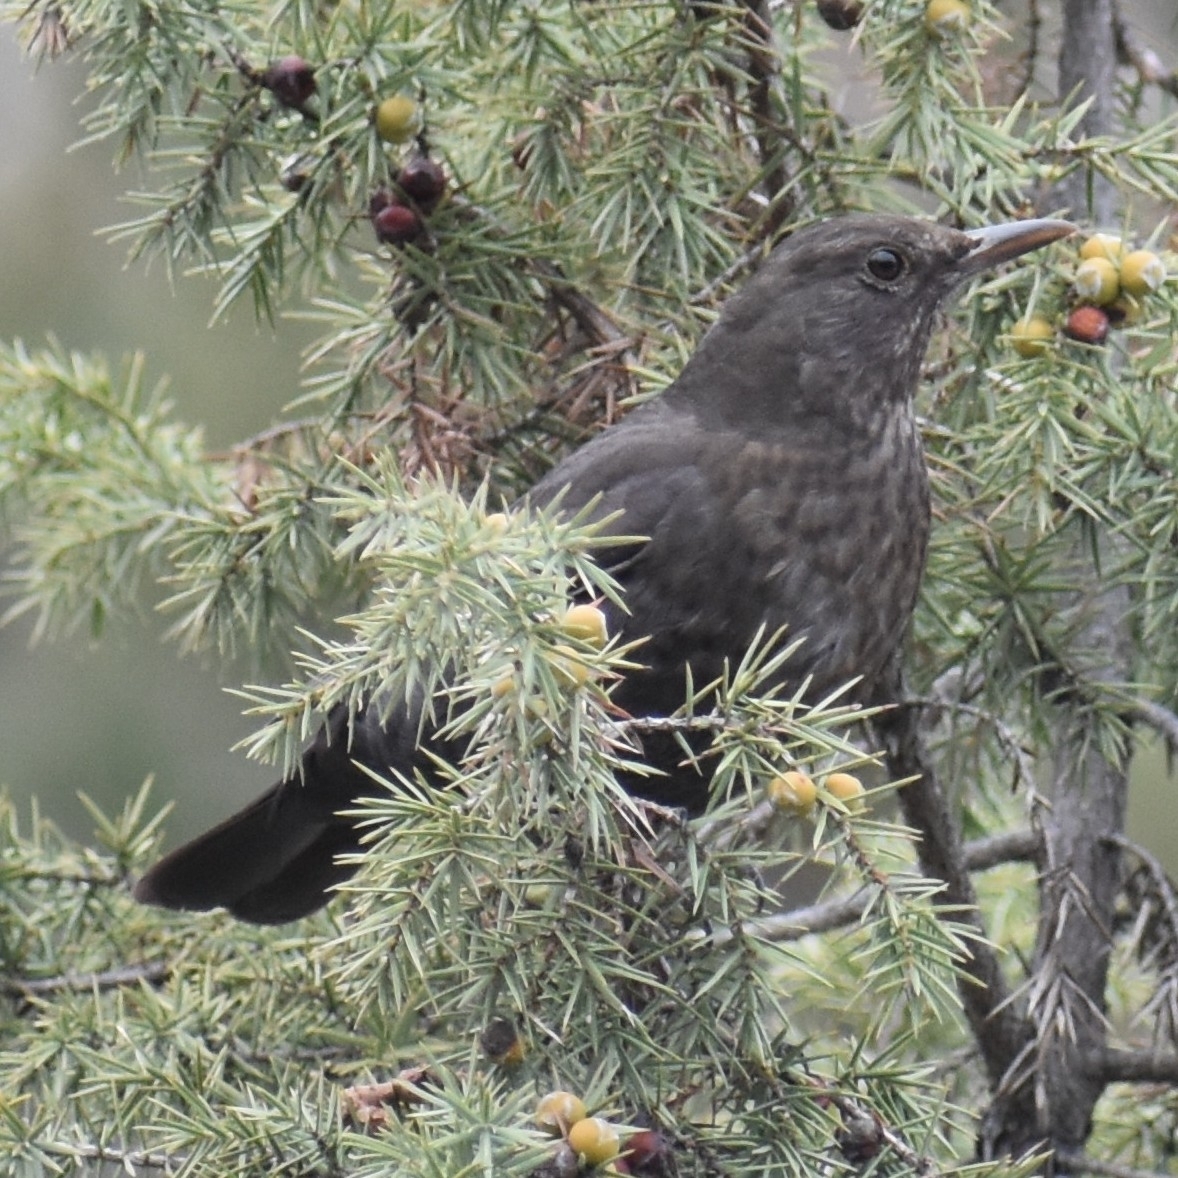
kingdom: Animalia
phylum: Chordata
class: Aves
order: Passeriformes
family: Turdidae
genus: Turdus
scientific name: Turdus merula
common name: Common blackbird
